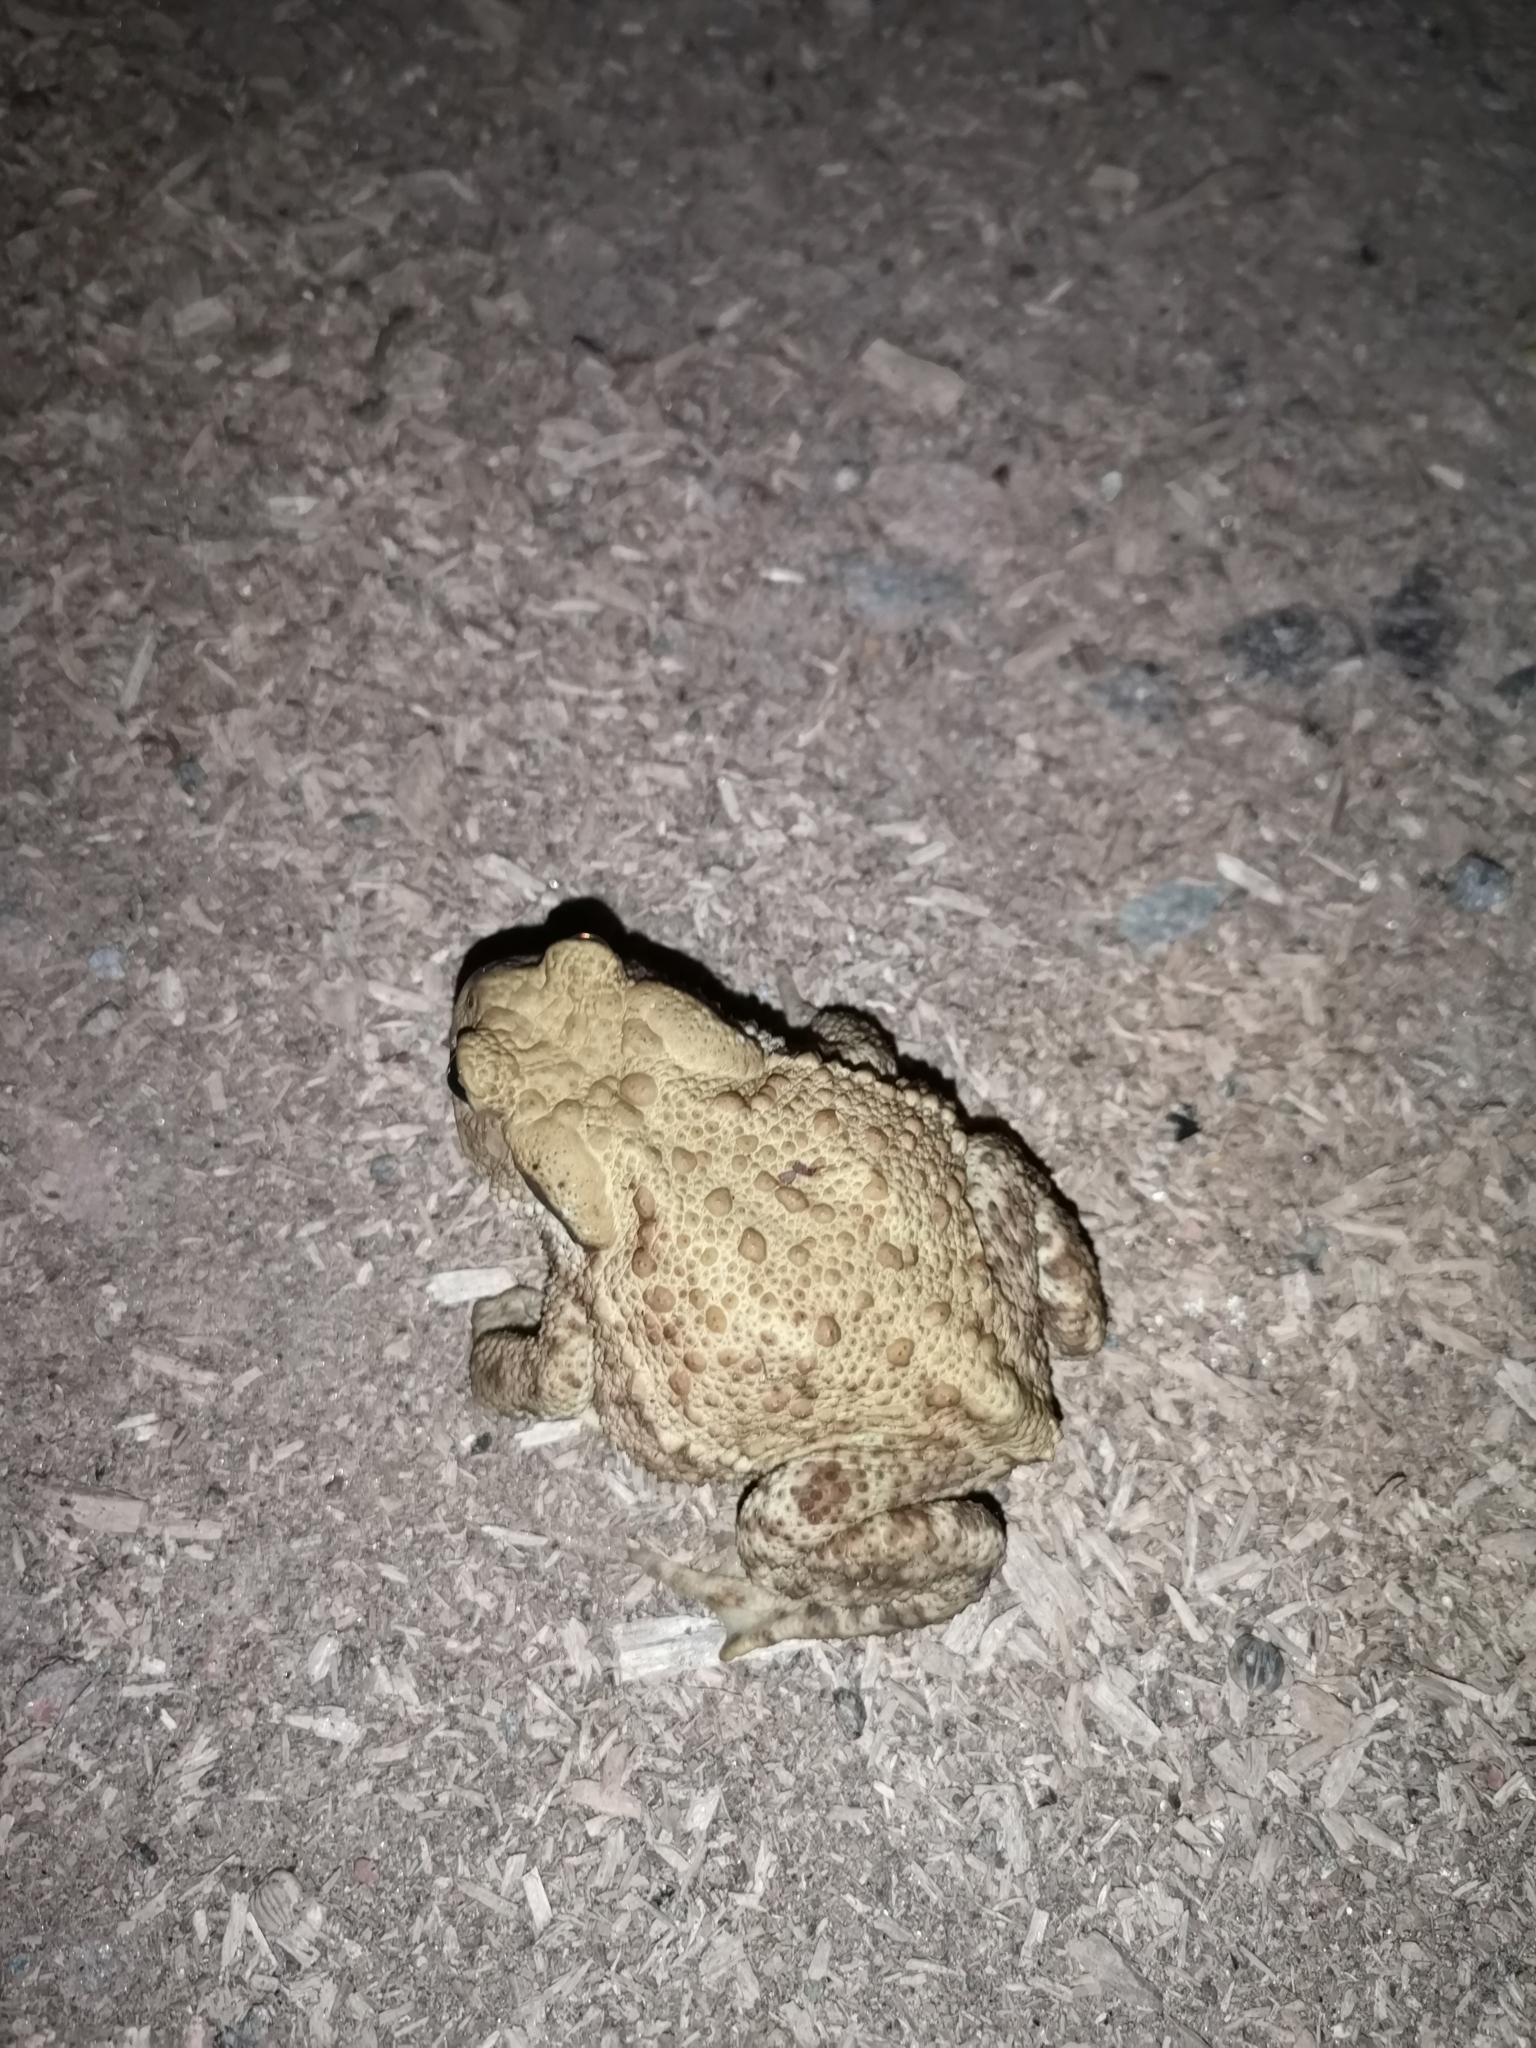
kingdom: Animalia
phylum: Chordata
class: Amphibia
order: Anura
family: Bufonidae
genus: Bufo
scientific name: Bufo bufo
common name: Common toad
